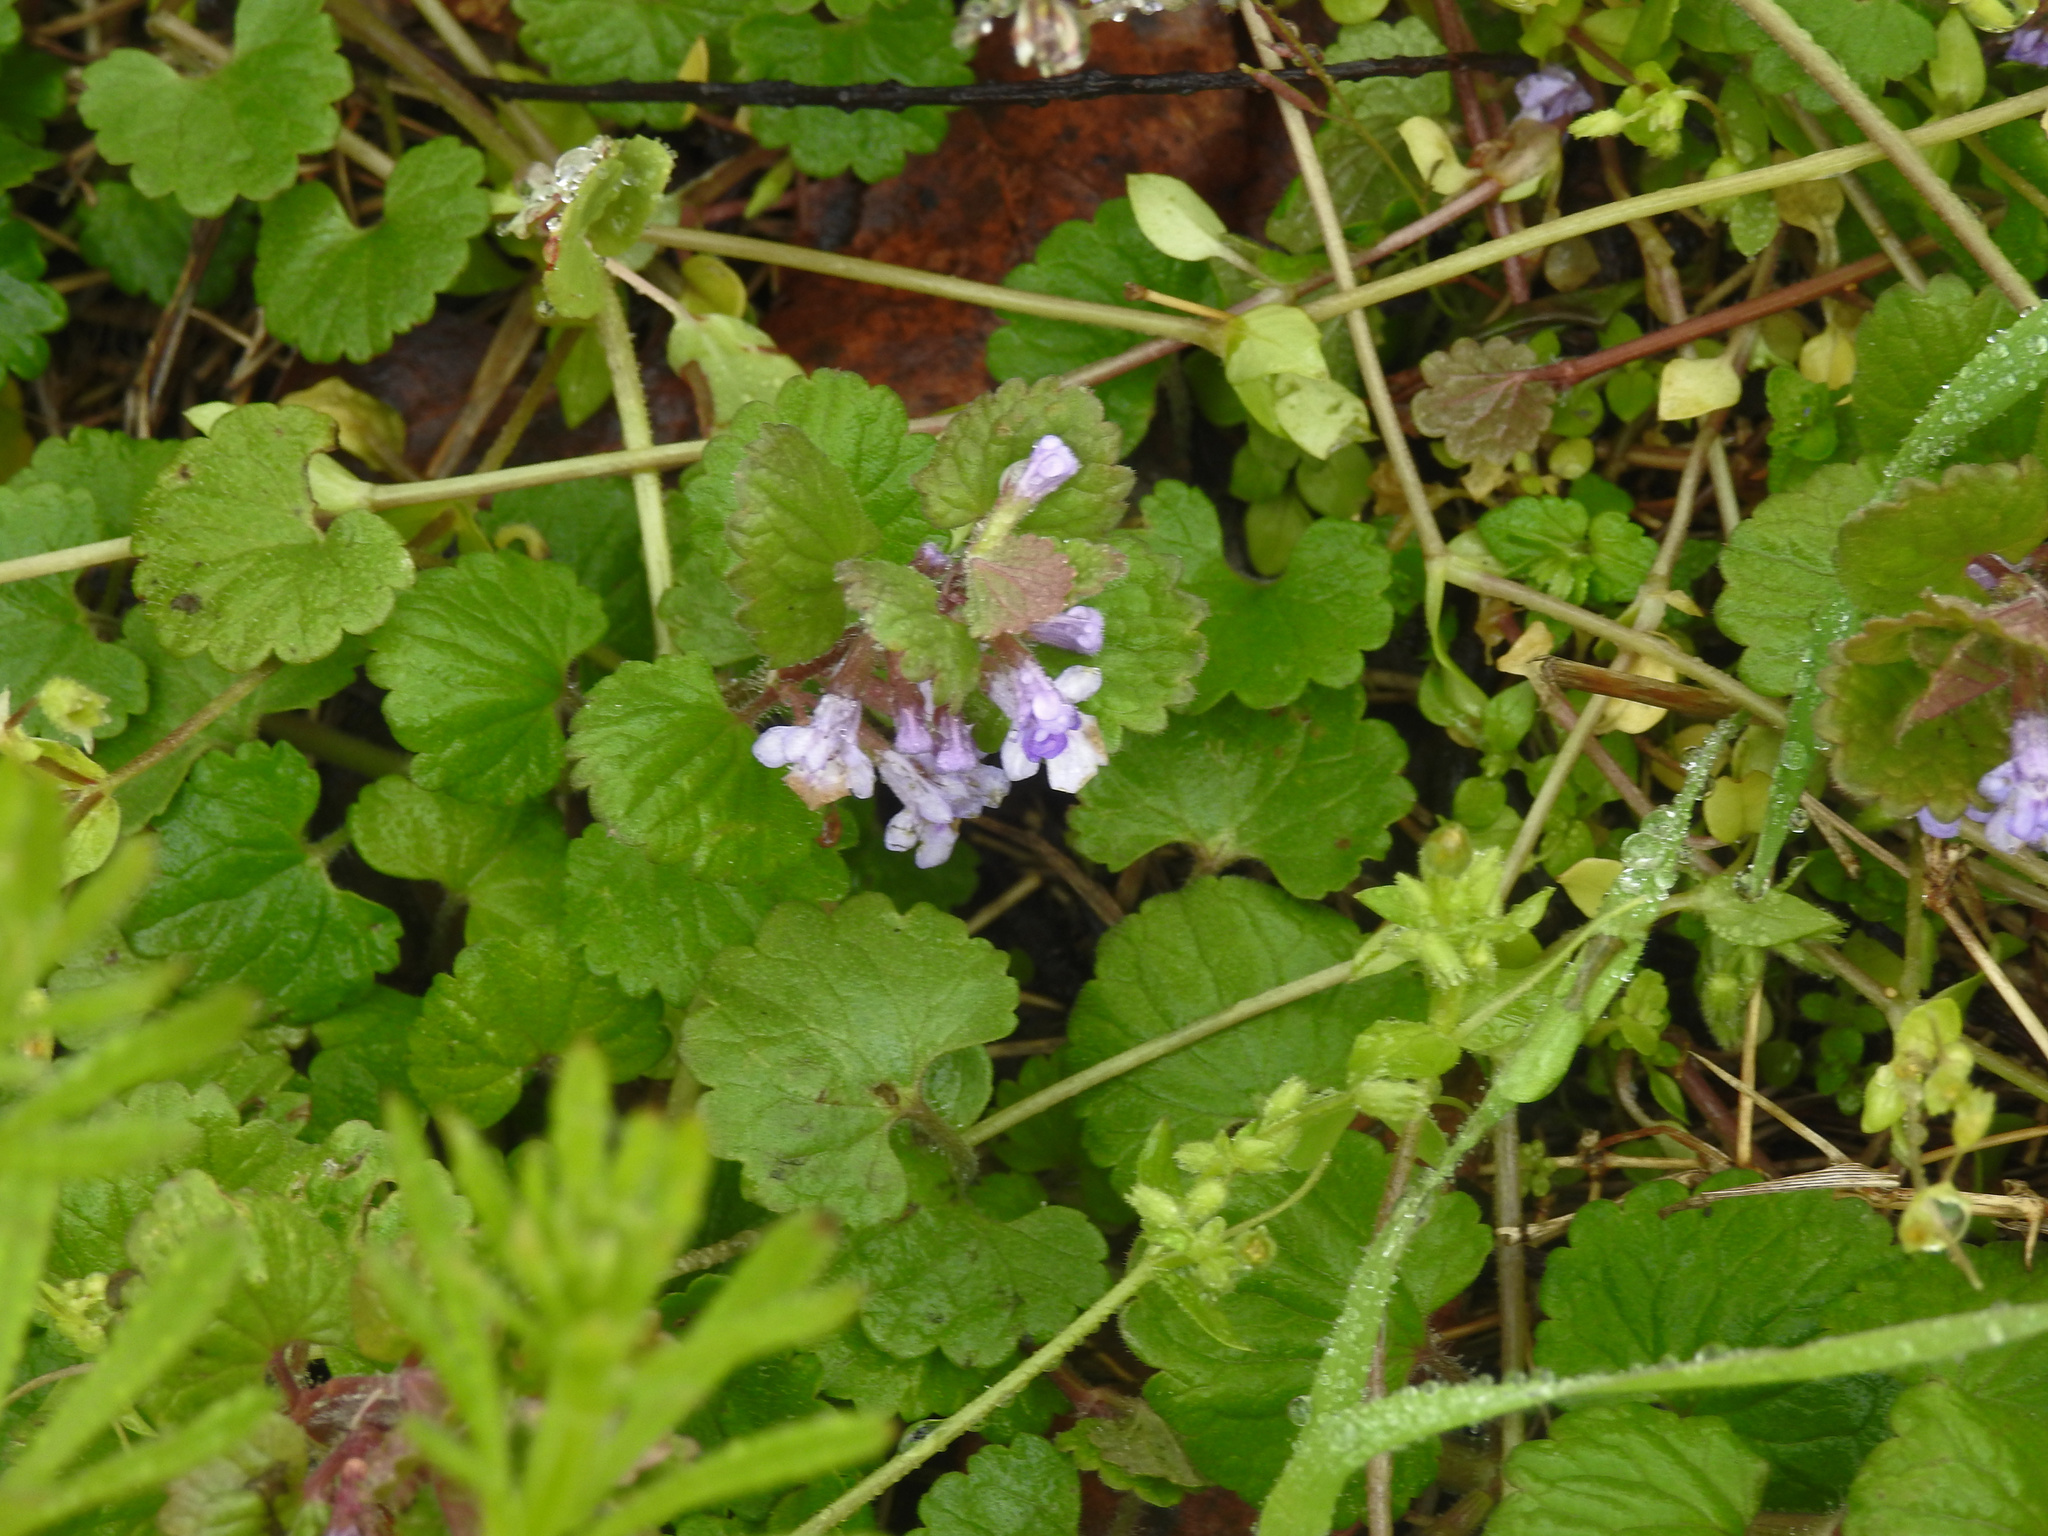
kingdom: Plantae
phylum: Tracheophyta
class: Magnoliopsida
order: Lamiales
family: Lamiaceae
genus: Glechoma
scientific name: Glechoma hederacea
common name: Ground ivy
